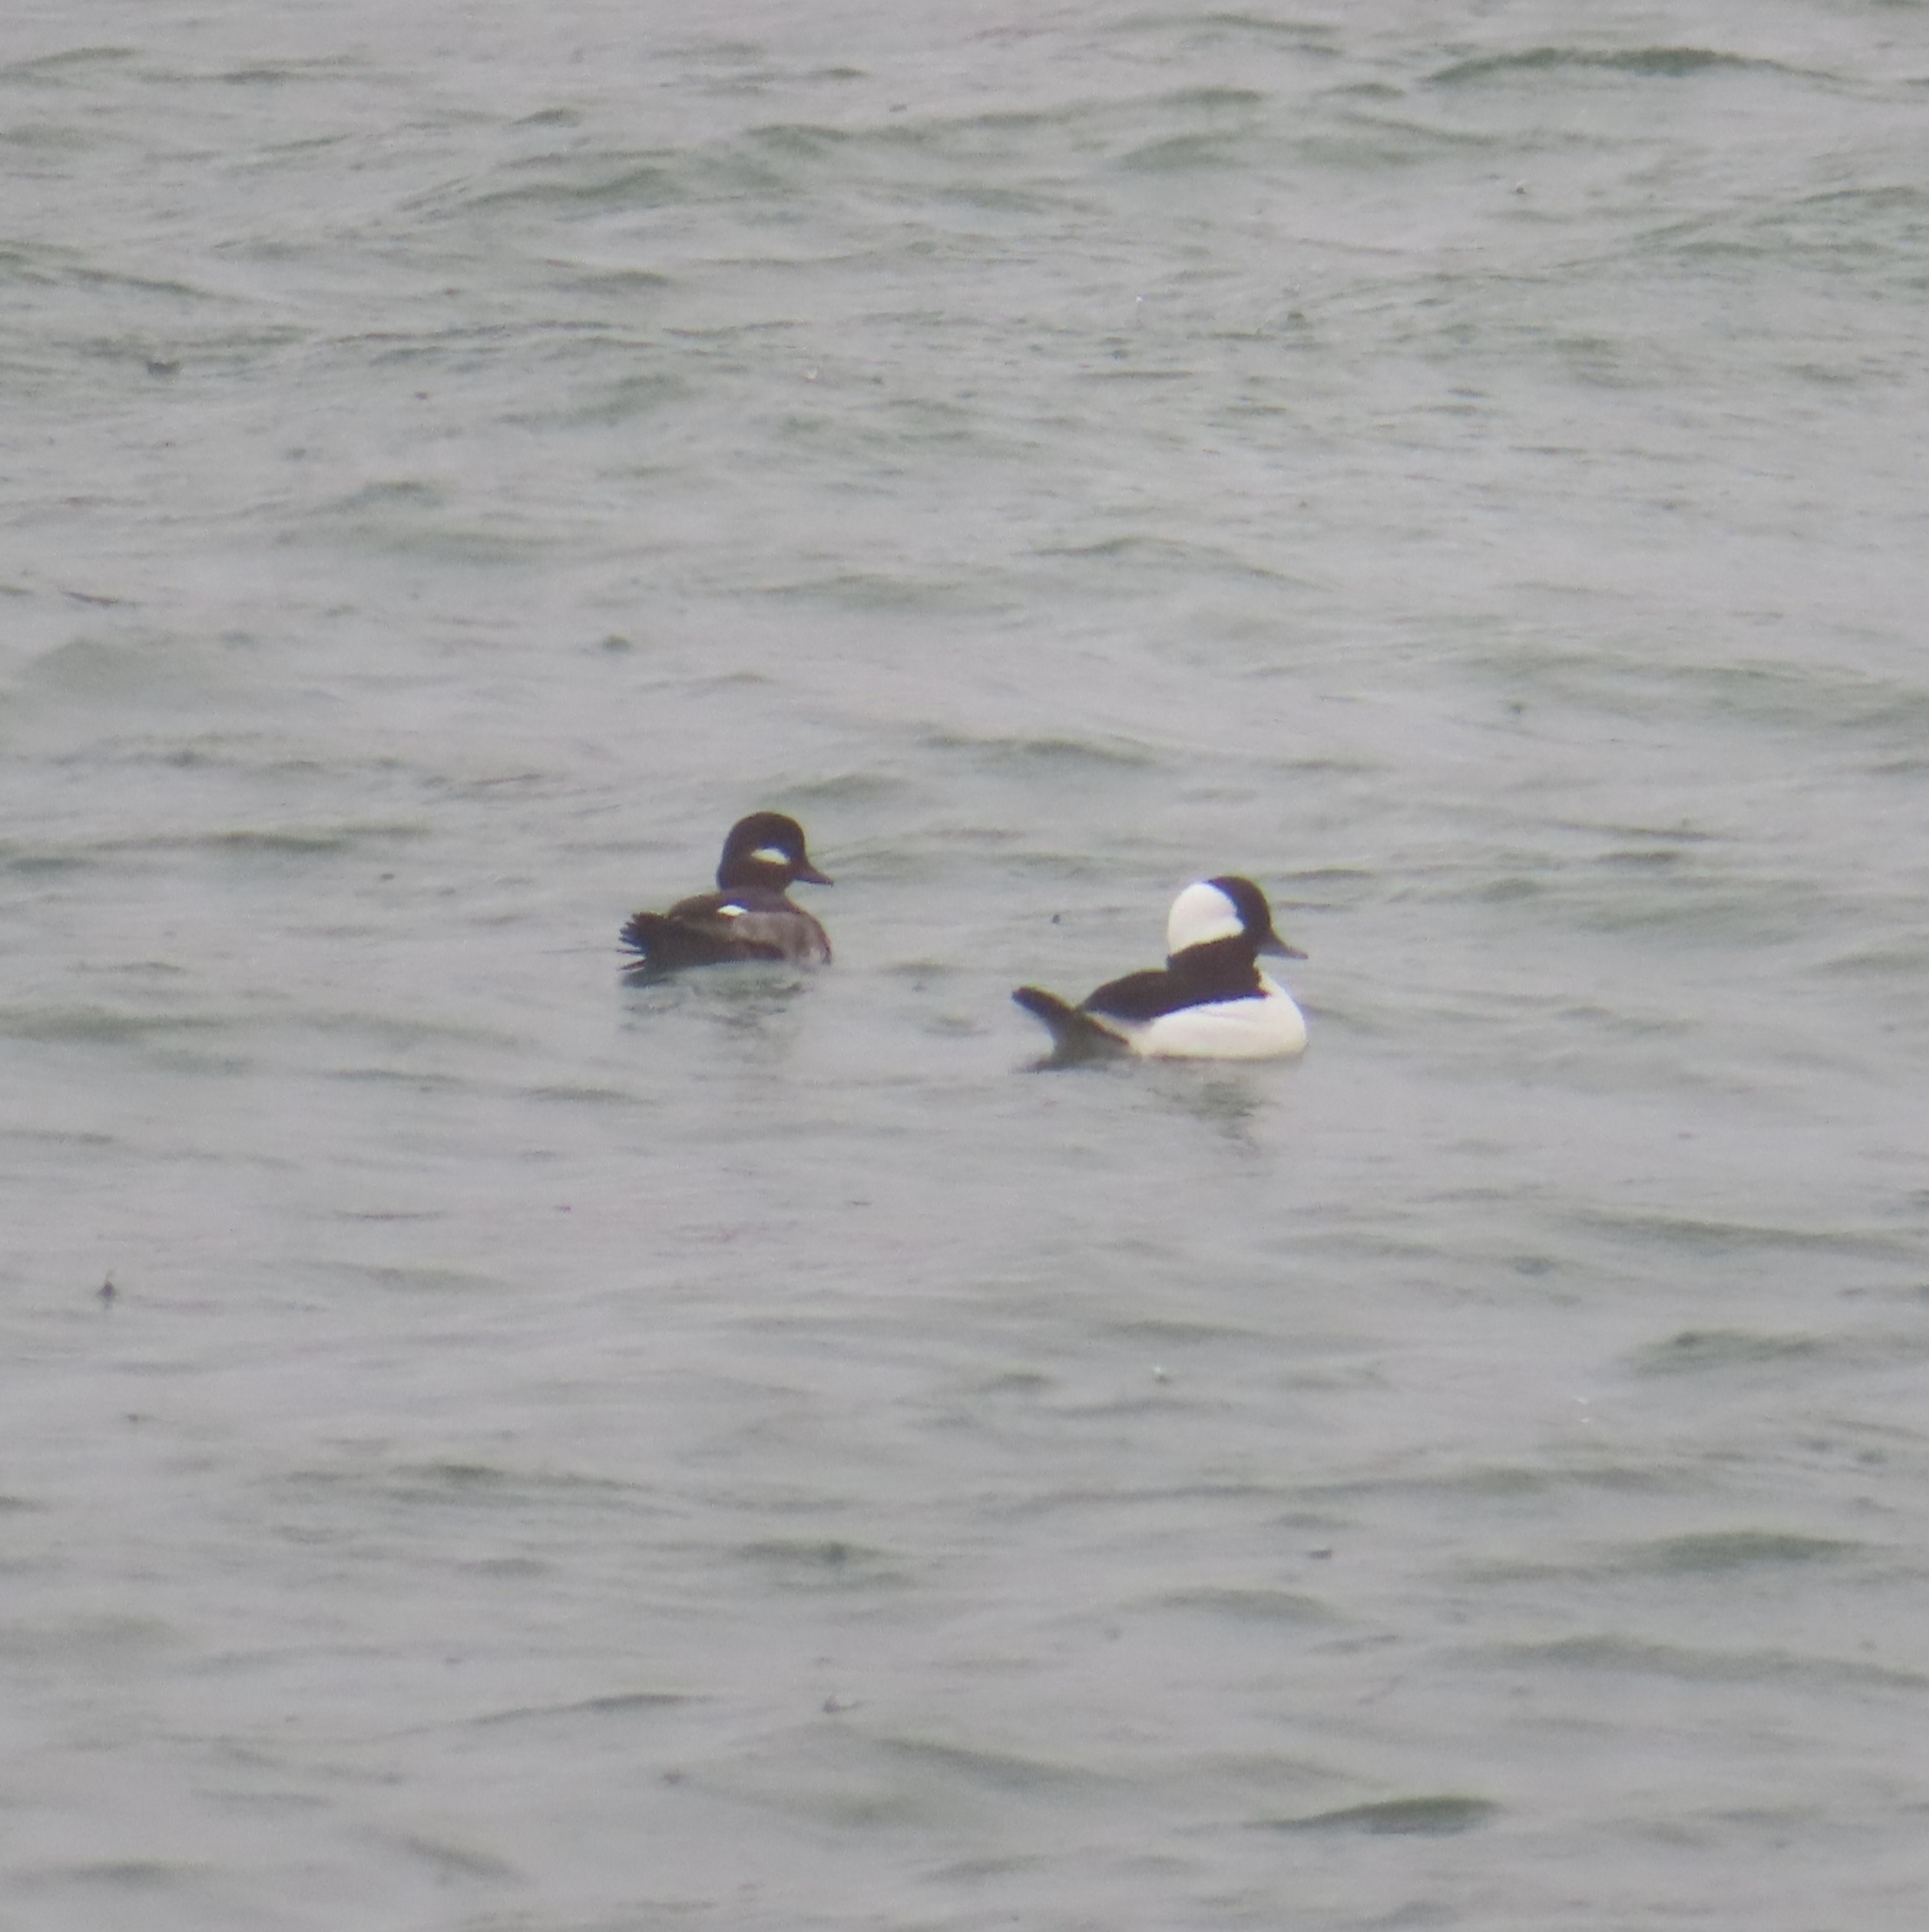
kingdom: Animalia
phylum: Chordata
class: Aves
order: Anseriformes
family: Anatidae
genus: Bucephala
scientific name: Bucephala albeola
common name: Bufflehead
